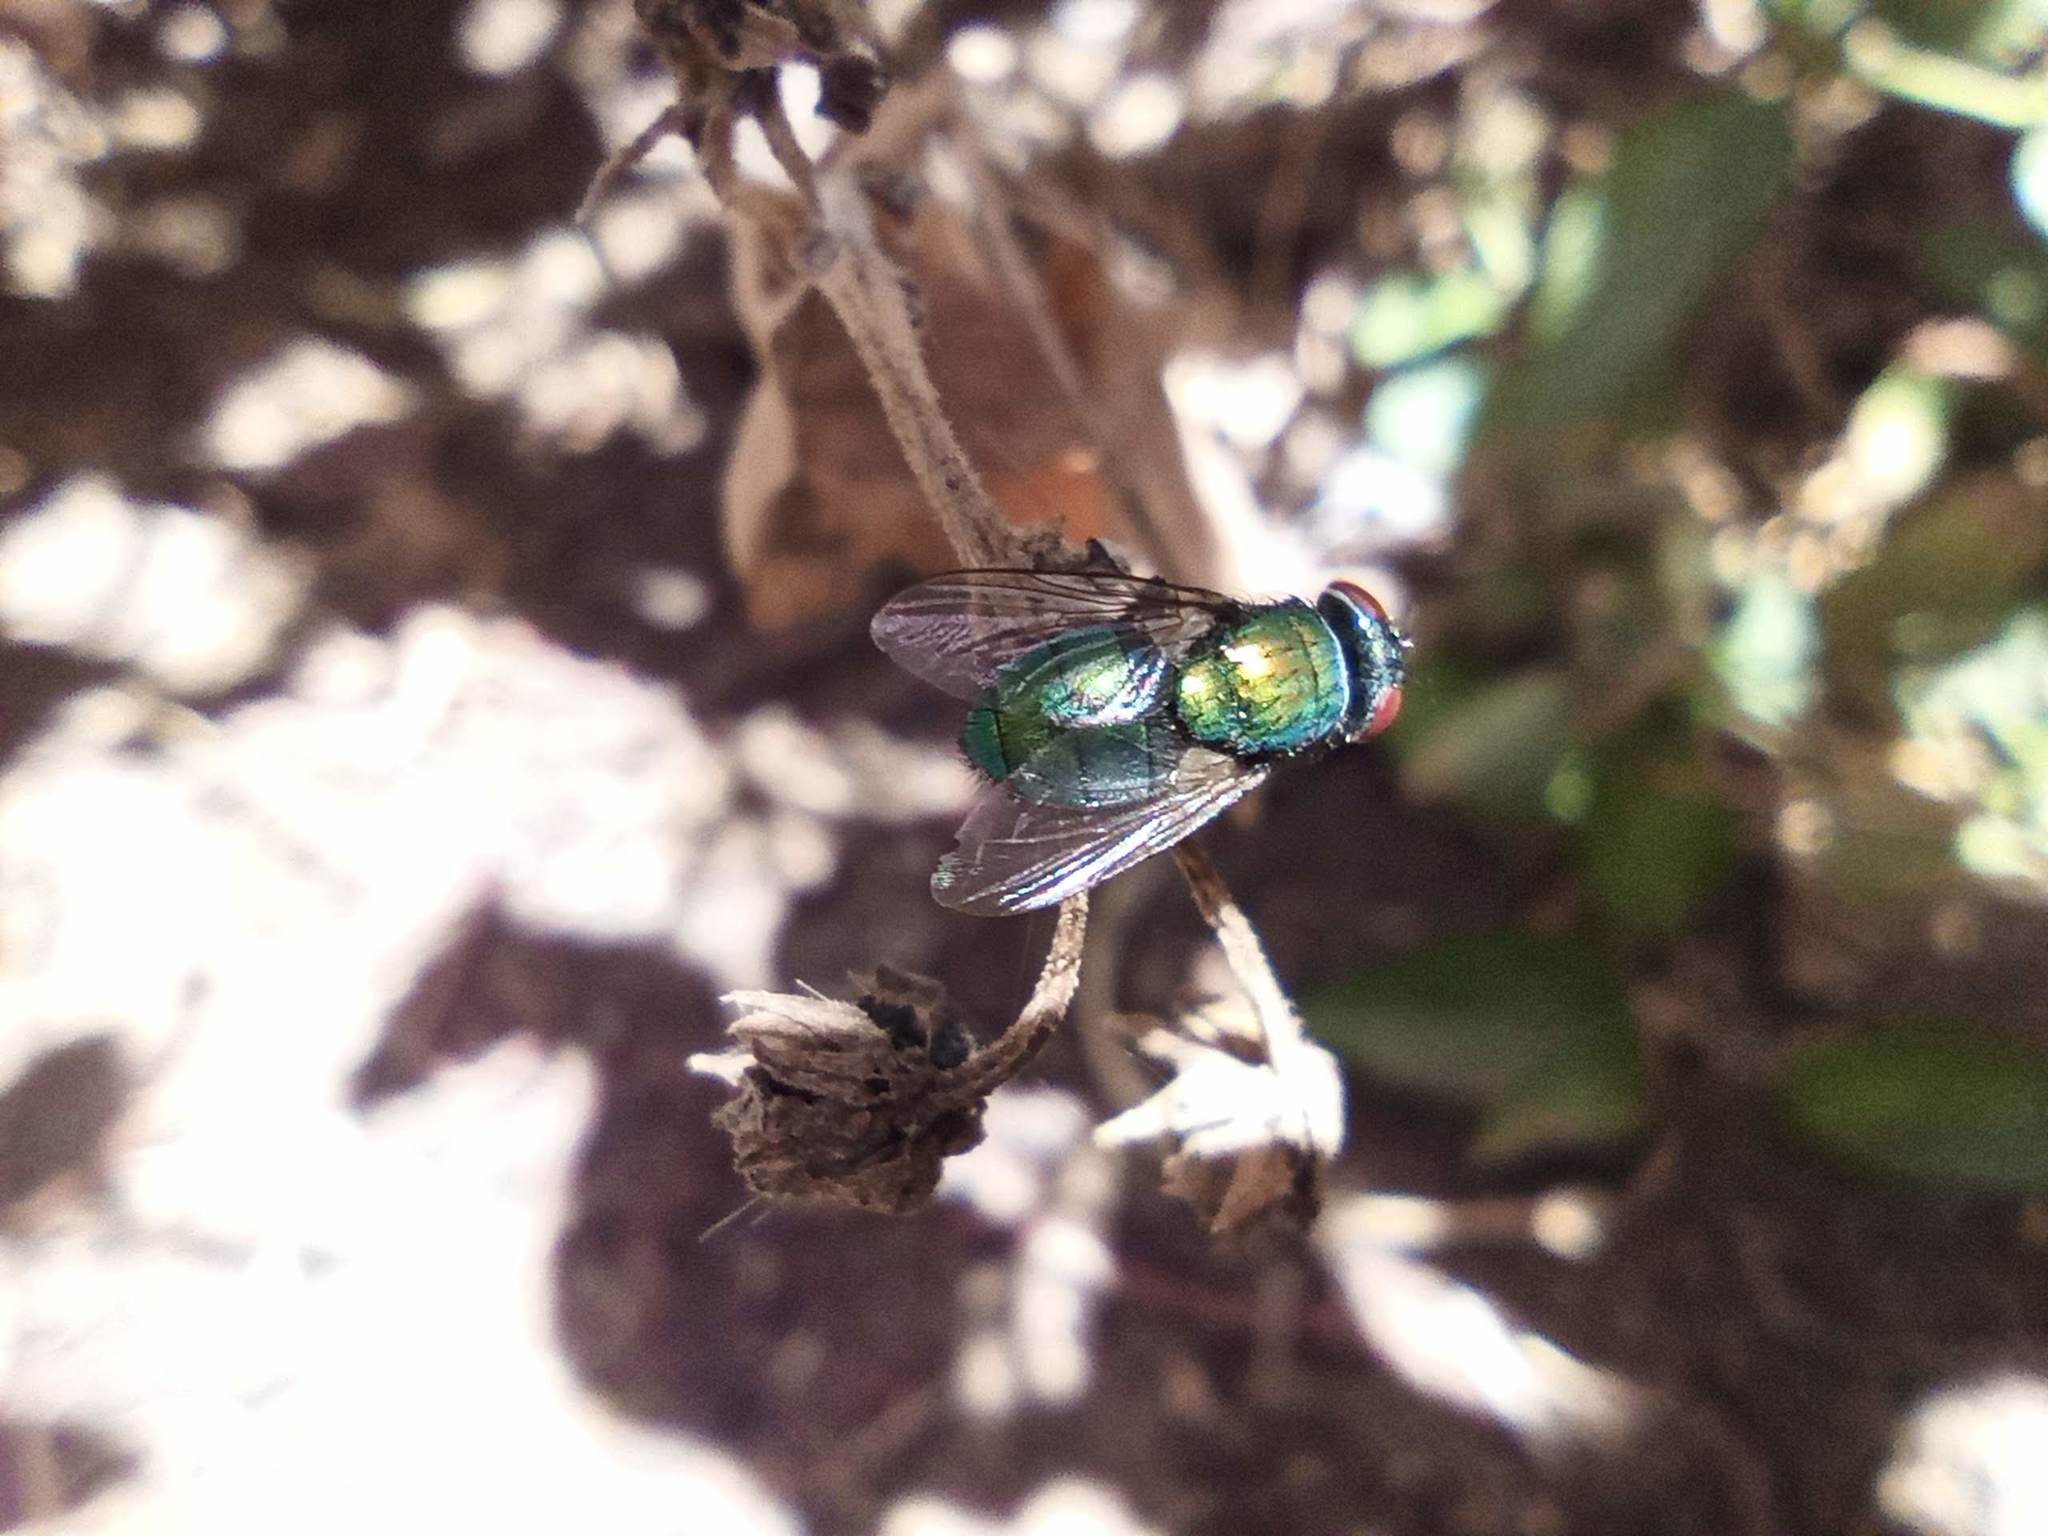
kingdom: Animalia
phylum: Arthropoda
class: Insecta
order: Diptera
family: Calliphoridae
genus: Lucilia
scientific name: Lucilia sericata
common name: Blow fly
